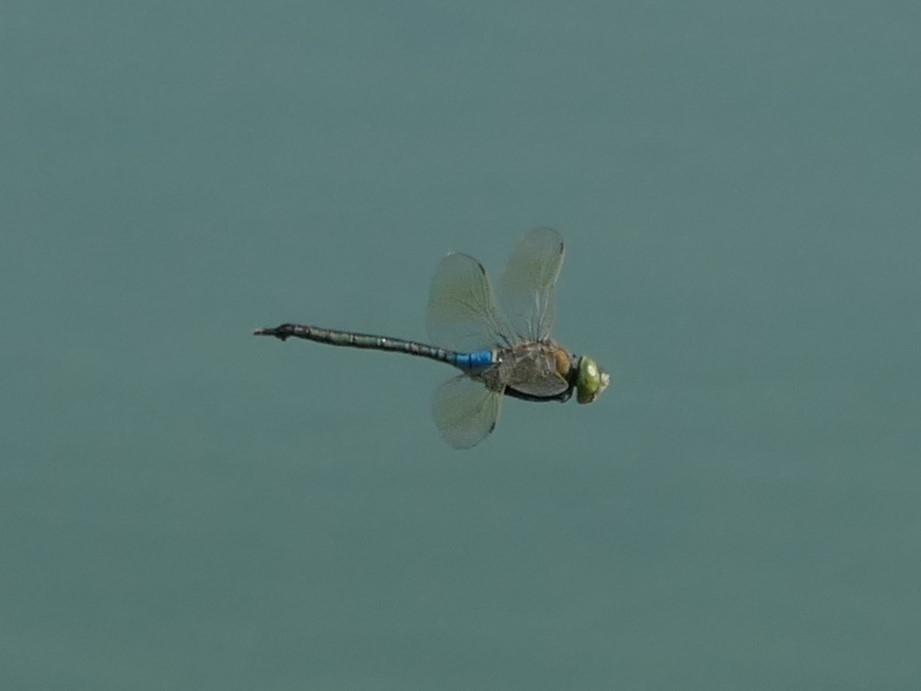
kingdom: Animalia
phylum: Arthropoda
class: Insecta
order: Odonata
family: Aeshnidae
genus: Anax
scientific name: Anax parthenope
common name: Lesser emperor
